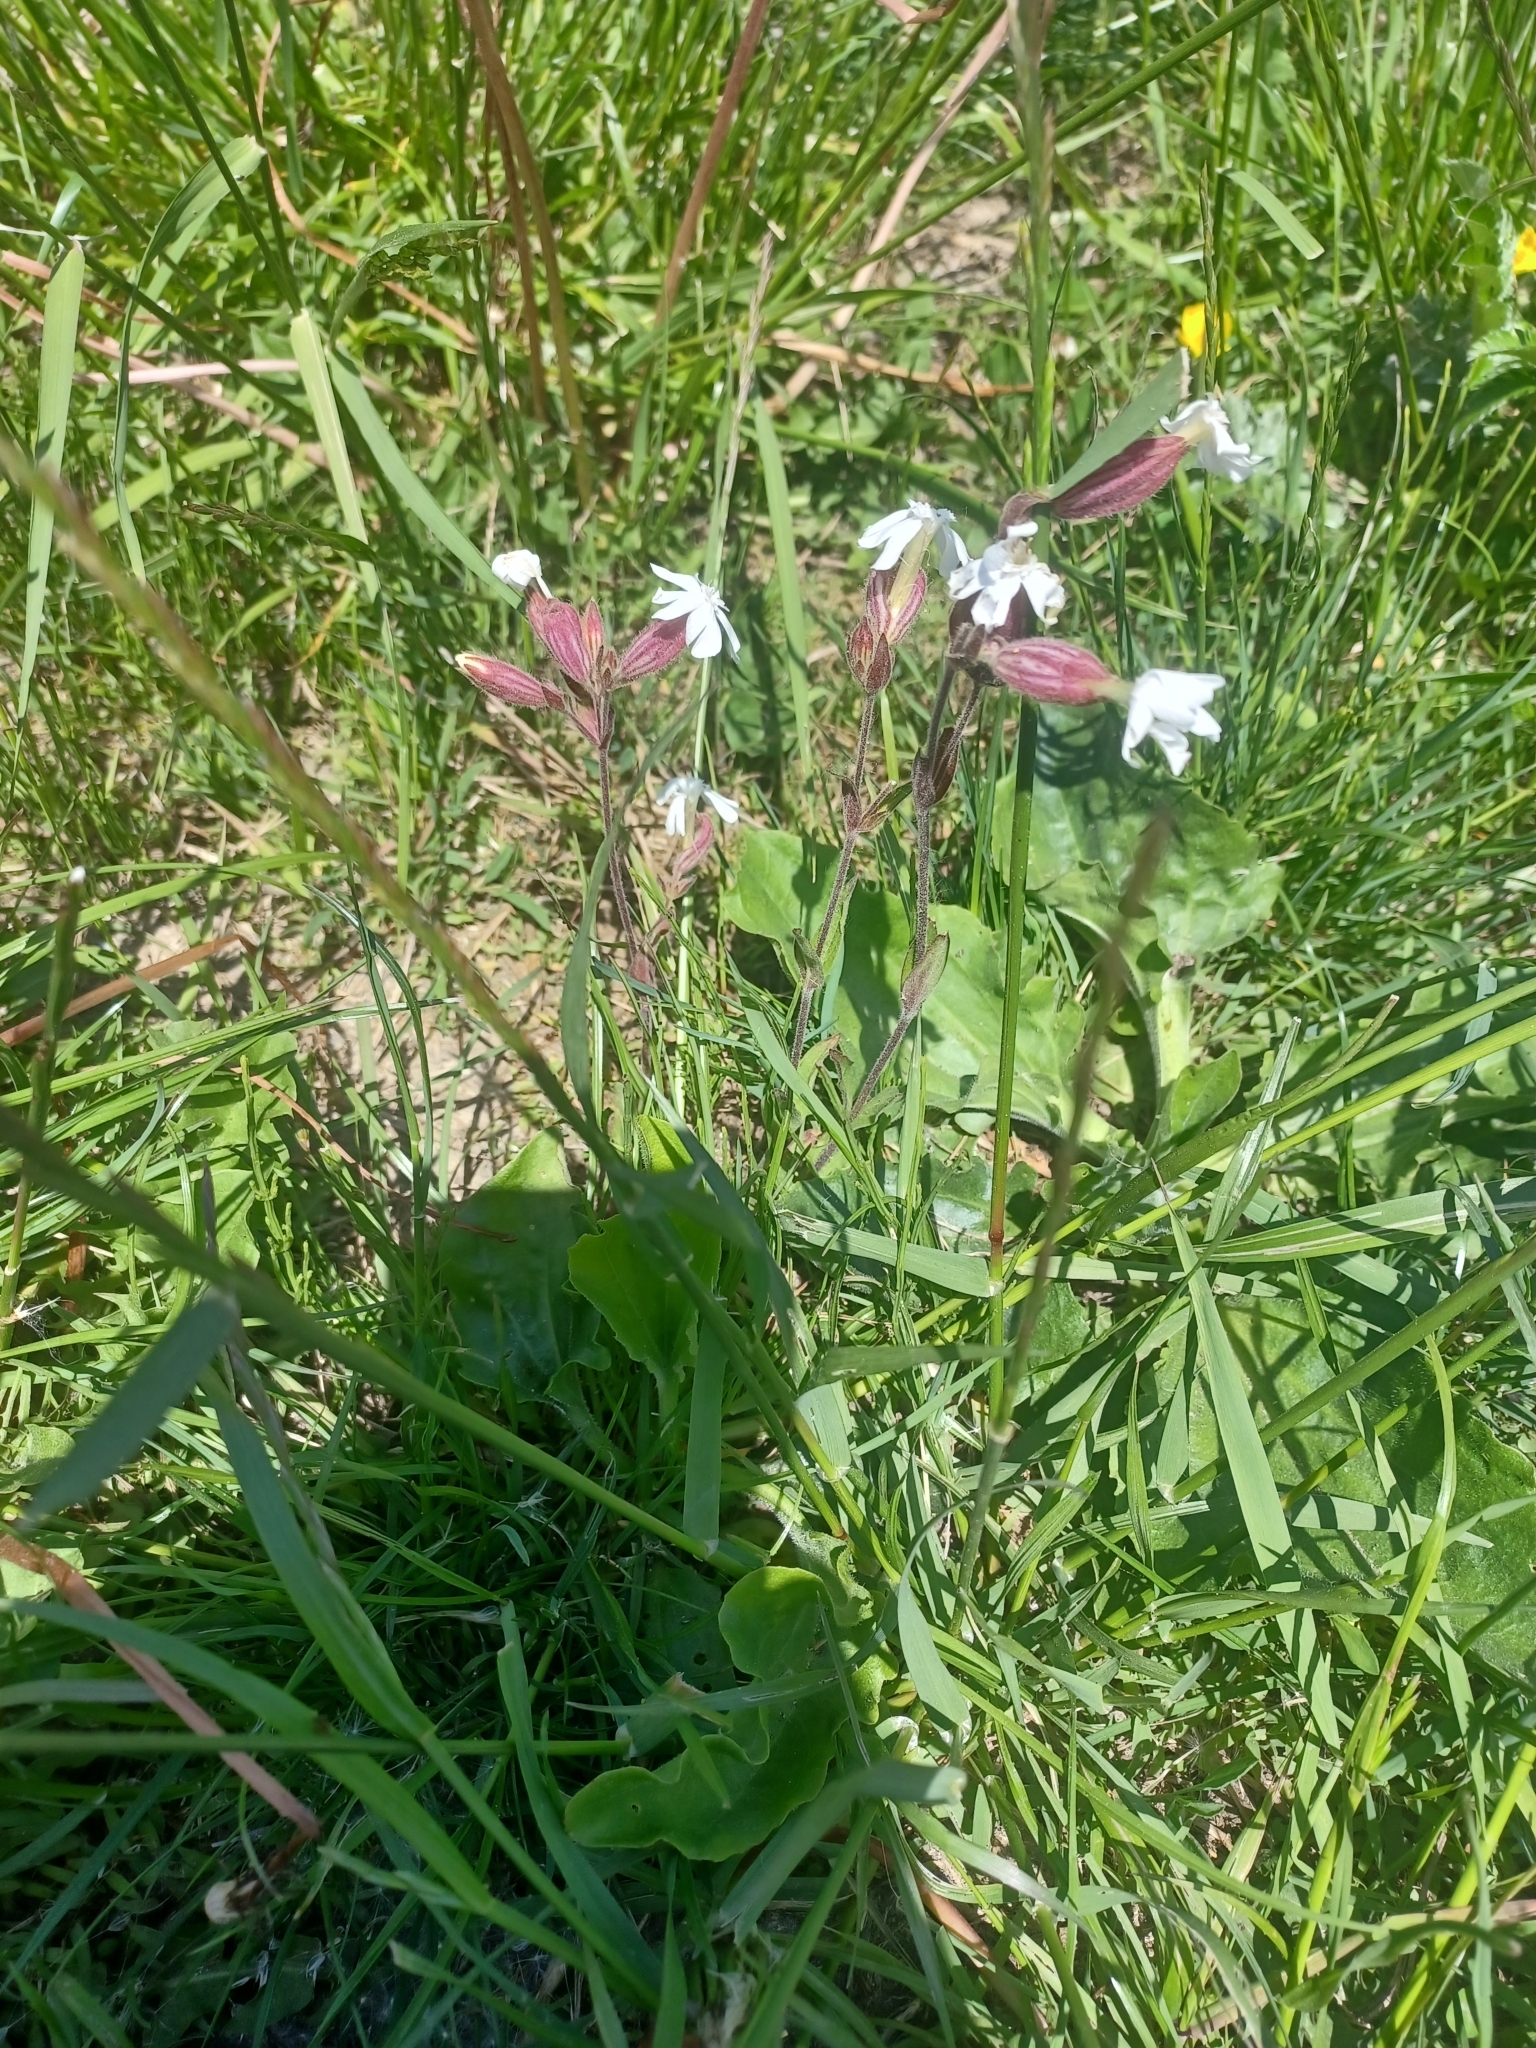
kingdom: Plantae
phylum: Tracheophyta
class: Magnoliopsida
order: Caryophyllales
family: Caryophyllaceae
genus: Silene
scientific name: Silene latifolia
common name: White campion
